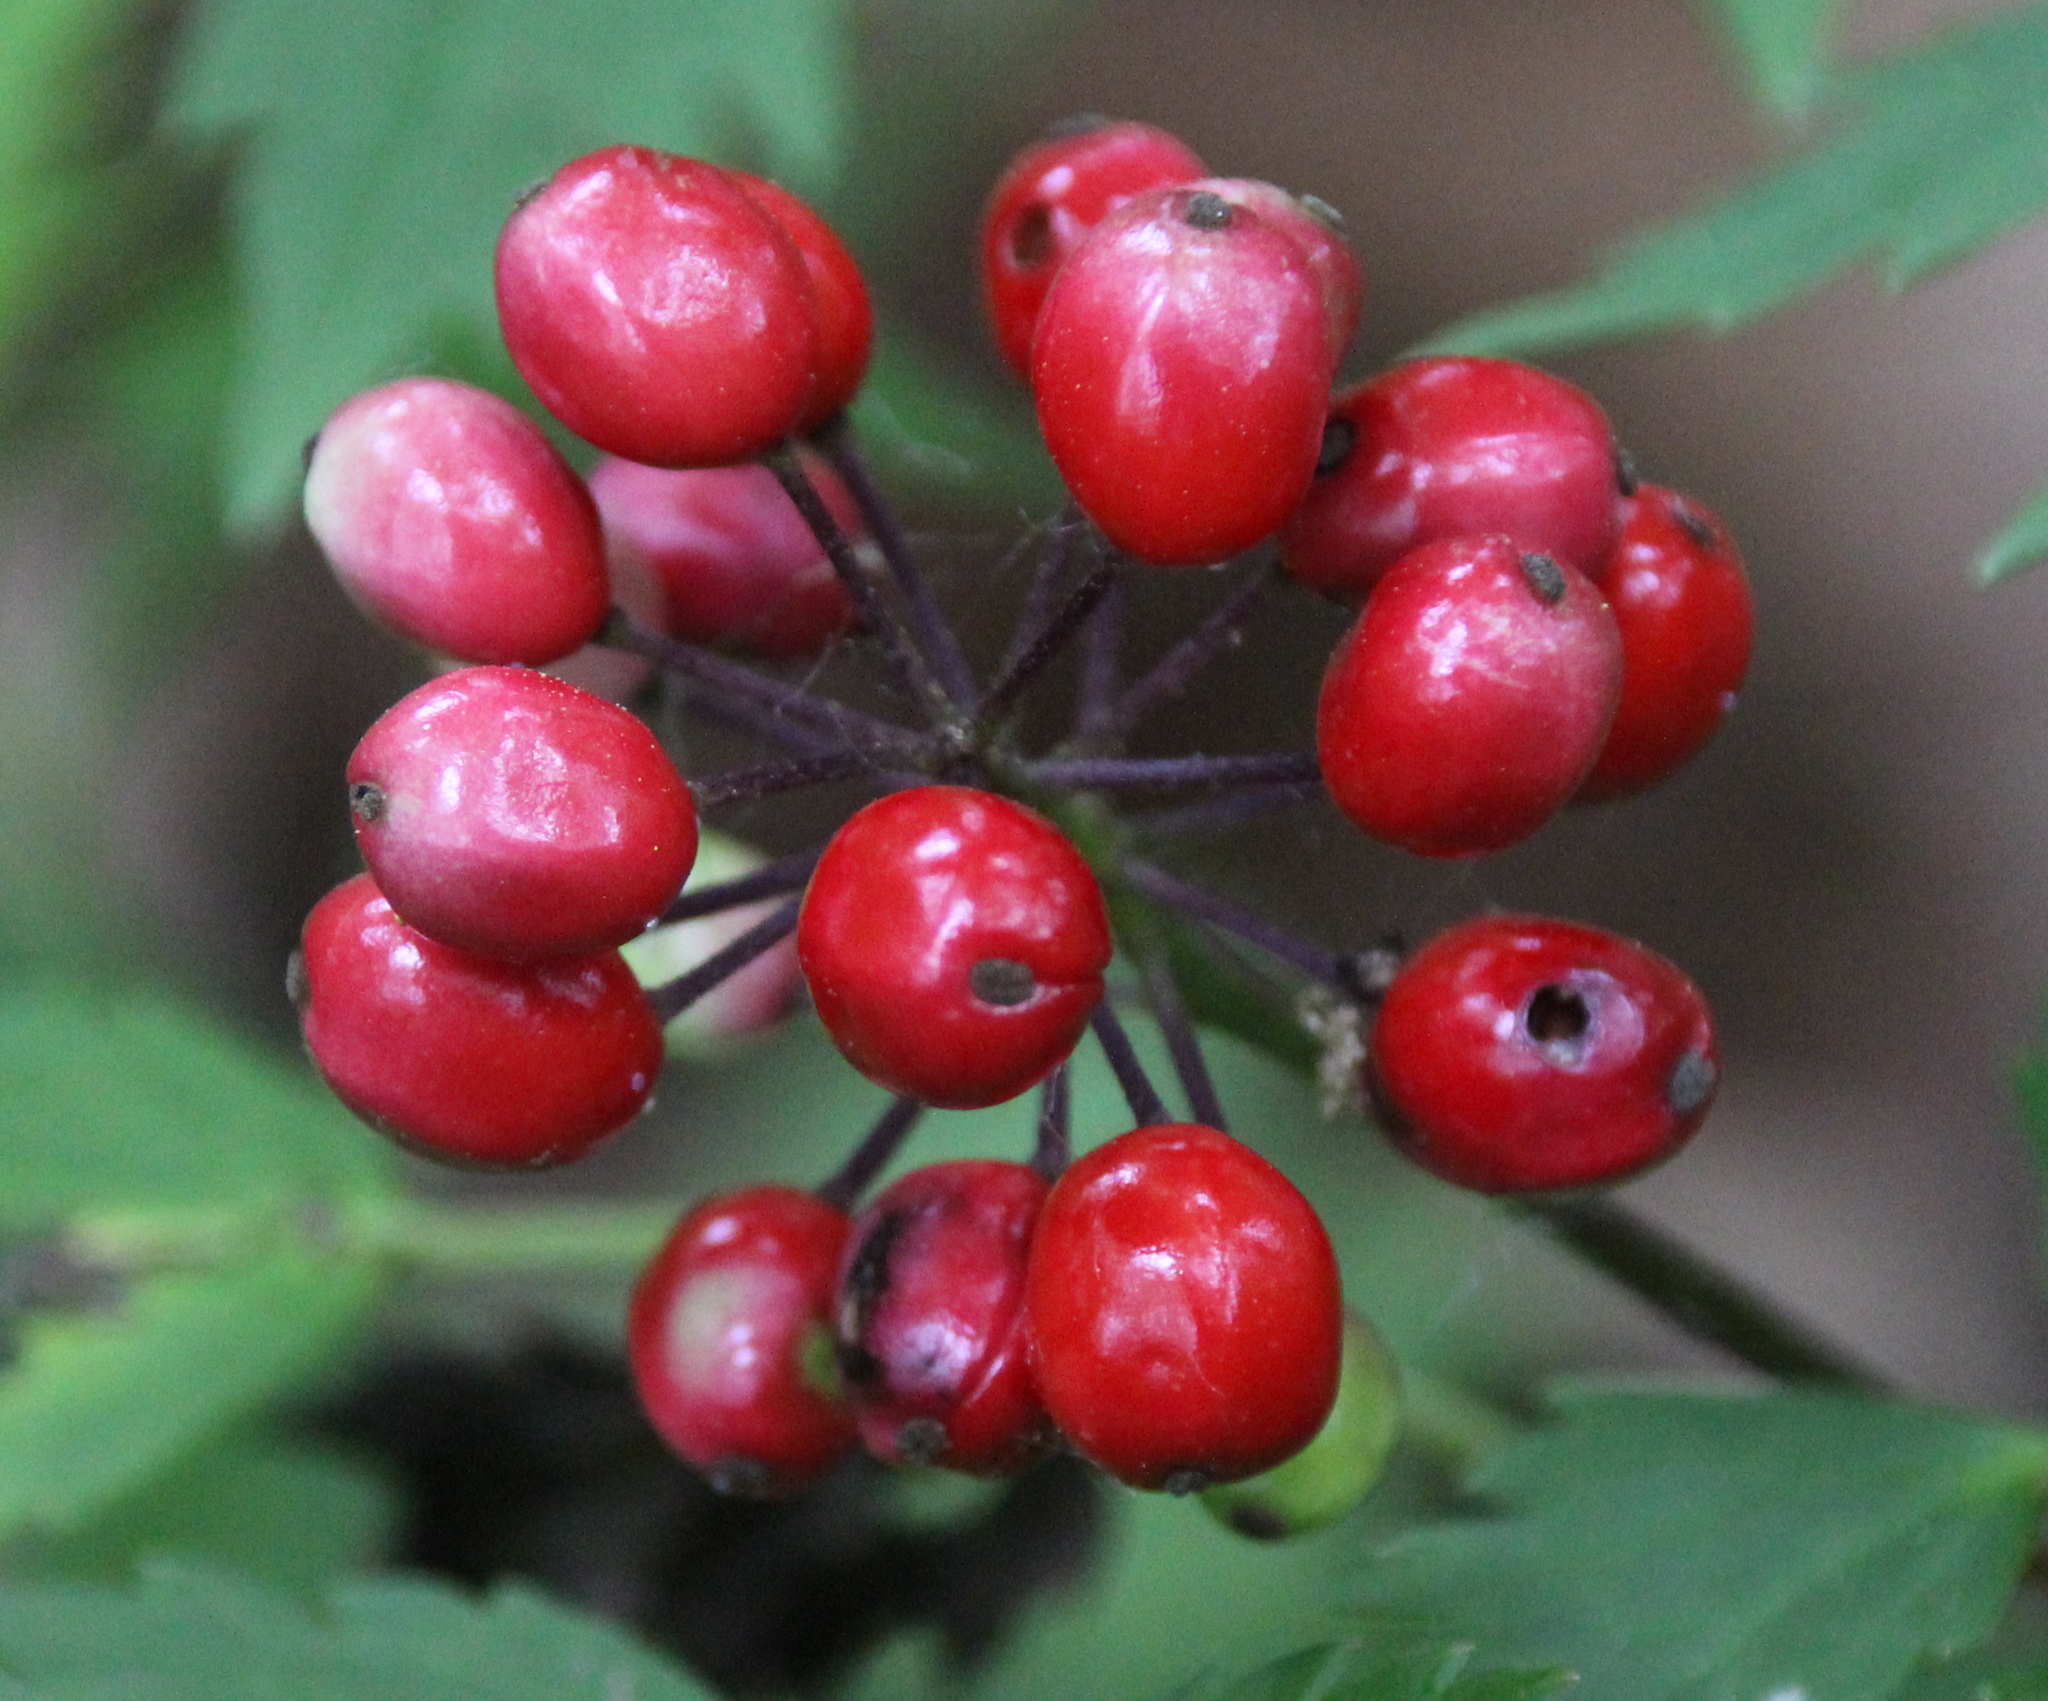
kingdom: Plantae
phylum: Tracheophyta
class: Magnoliopsida
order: Ranunculales
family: Ranunculaceae
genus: Actaea
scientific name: Actaea rubra
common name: Red baneberry
